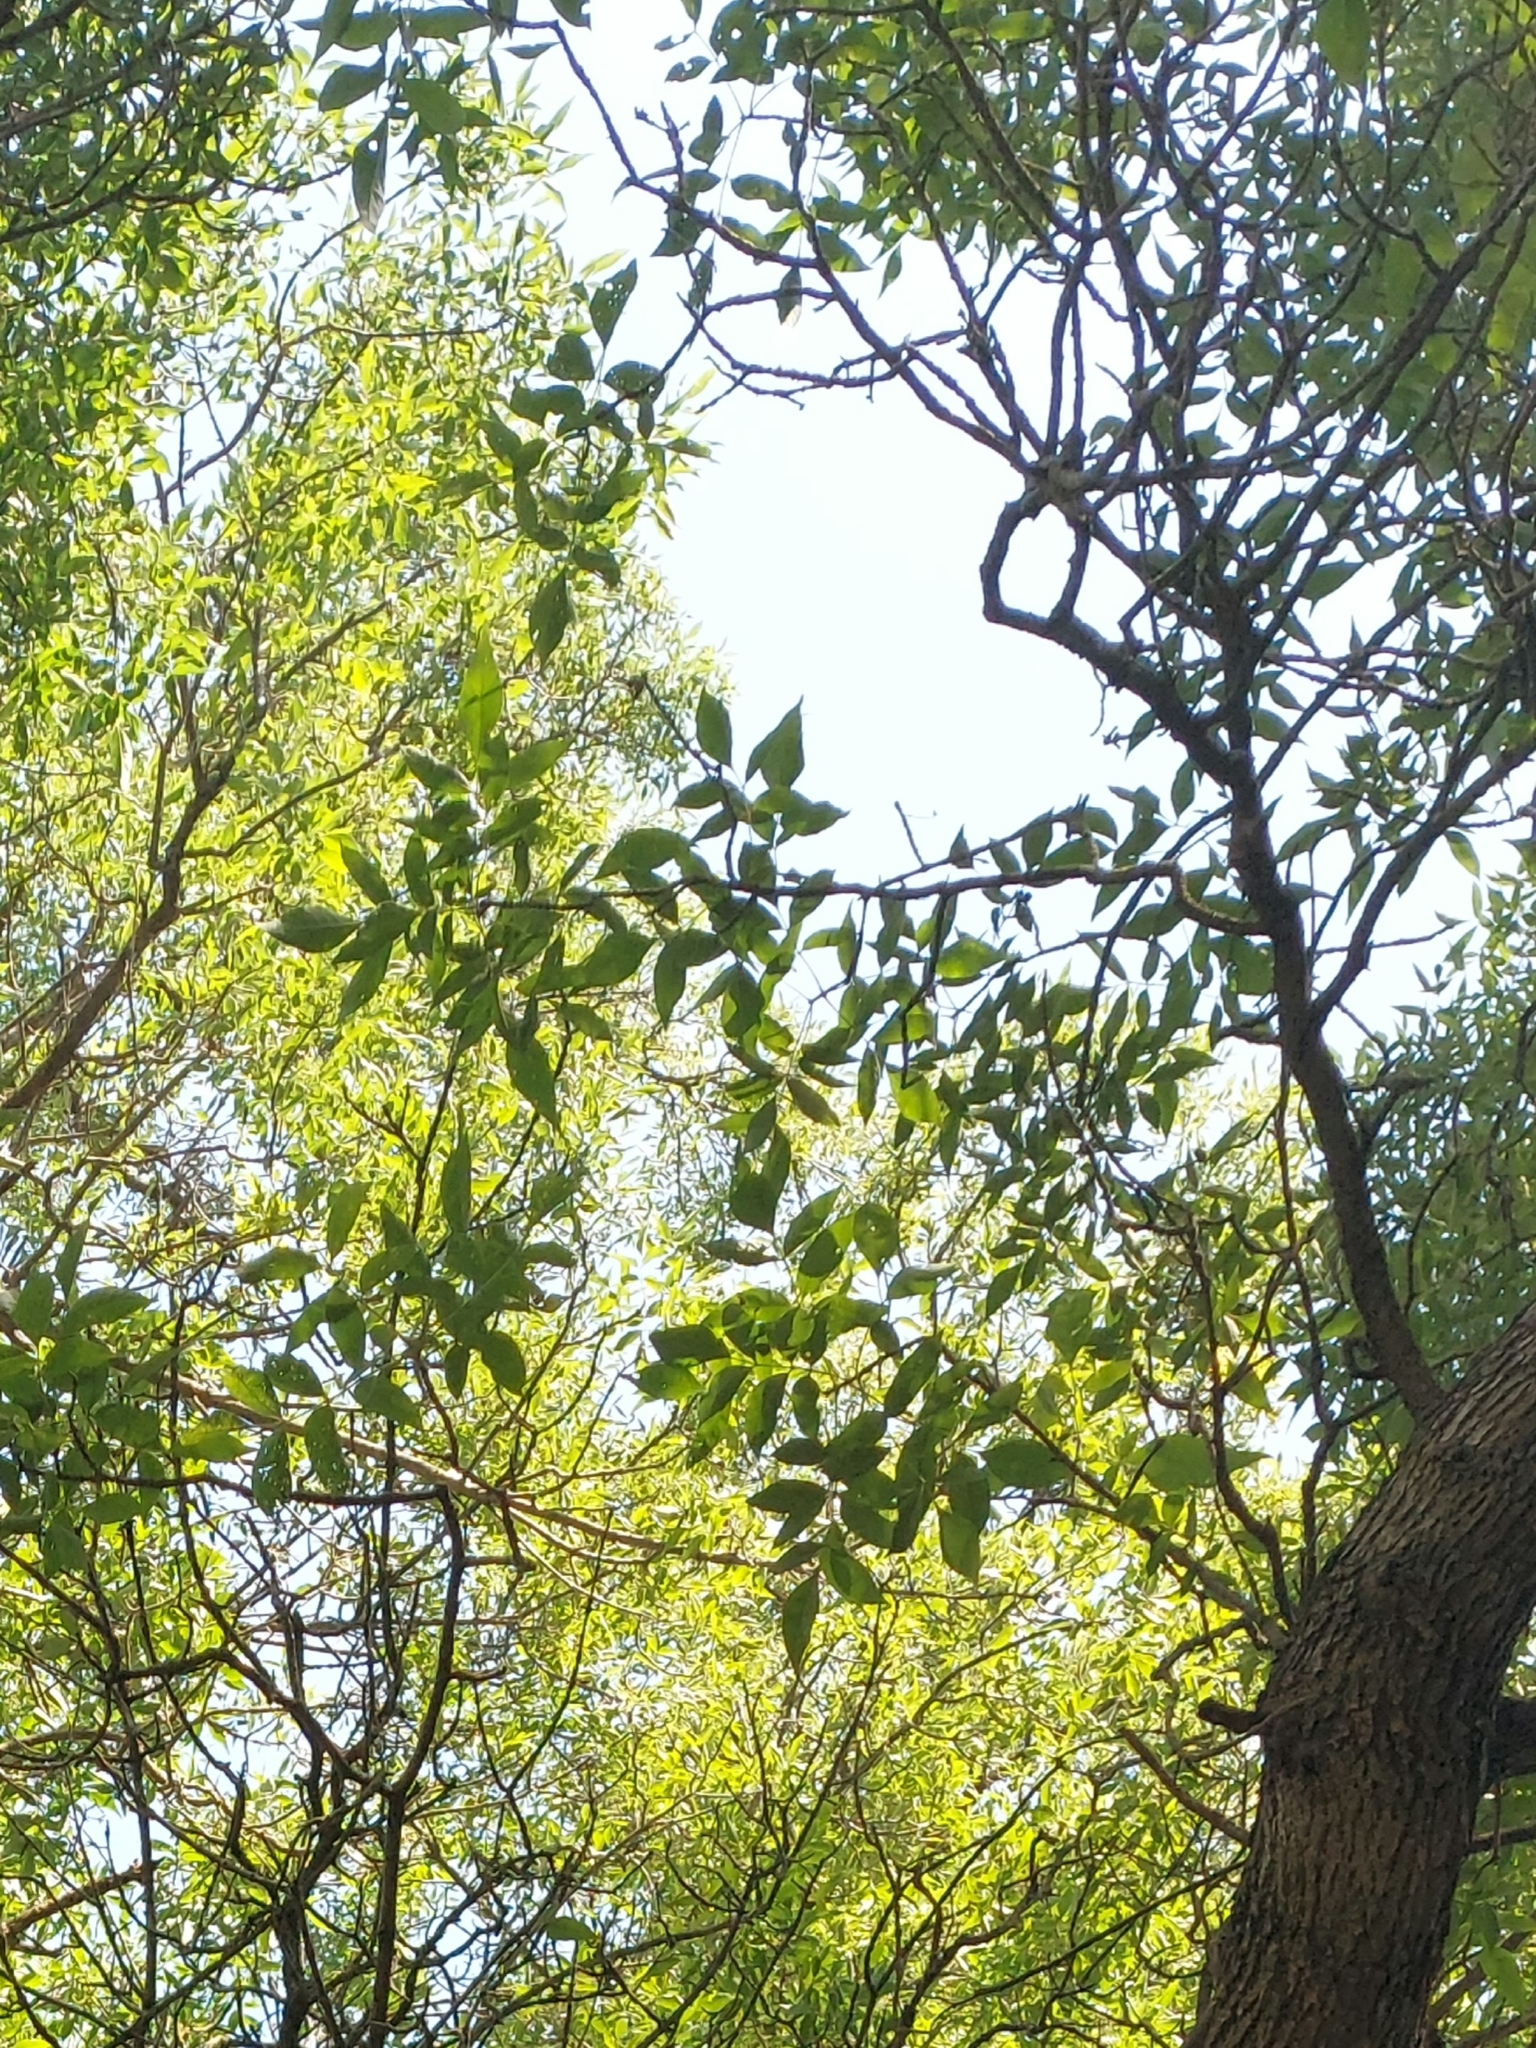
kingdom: Plantae
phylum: Tracheophyta
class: Magnoliopsida
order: Lamiales
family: Oleaceae
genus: Fraxinus
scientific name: Fraxinus americana
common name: White ash
